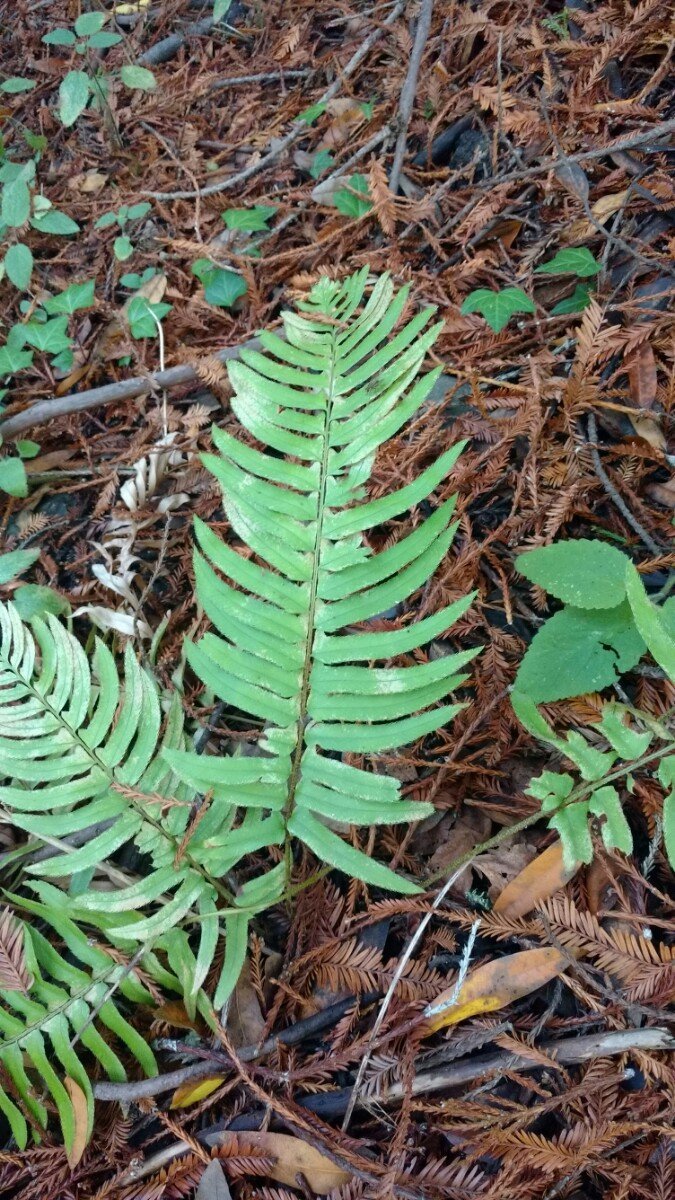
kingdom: Plantae
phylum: Tracheophyta
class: Polypodiopsida
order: Polypodiales
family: Dryopteridaceae
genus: Polystichum
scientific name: Polystichum munitum
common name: Western sword-fern
